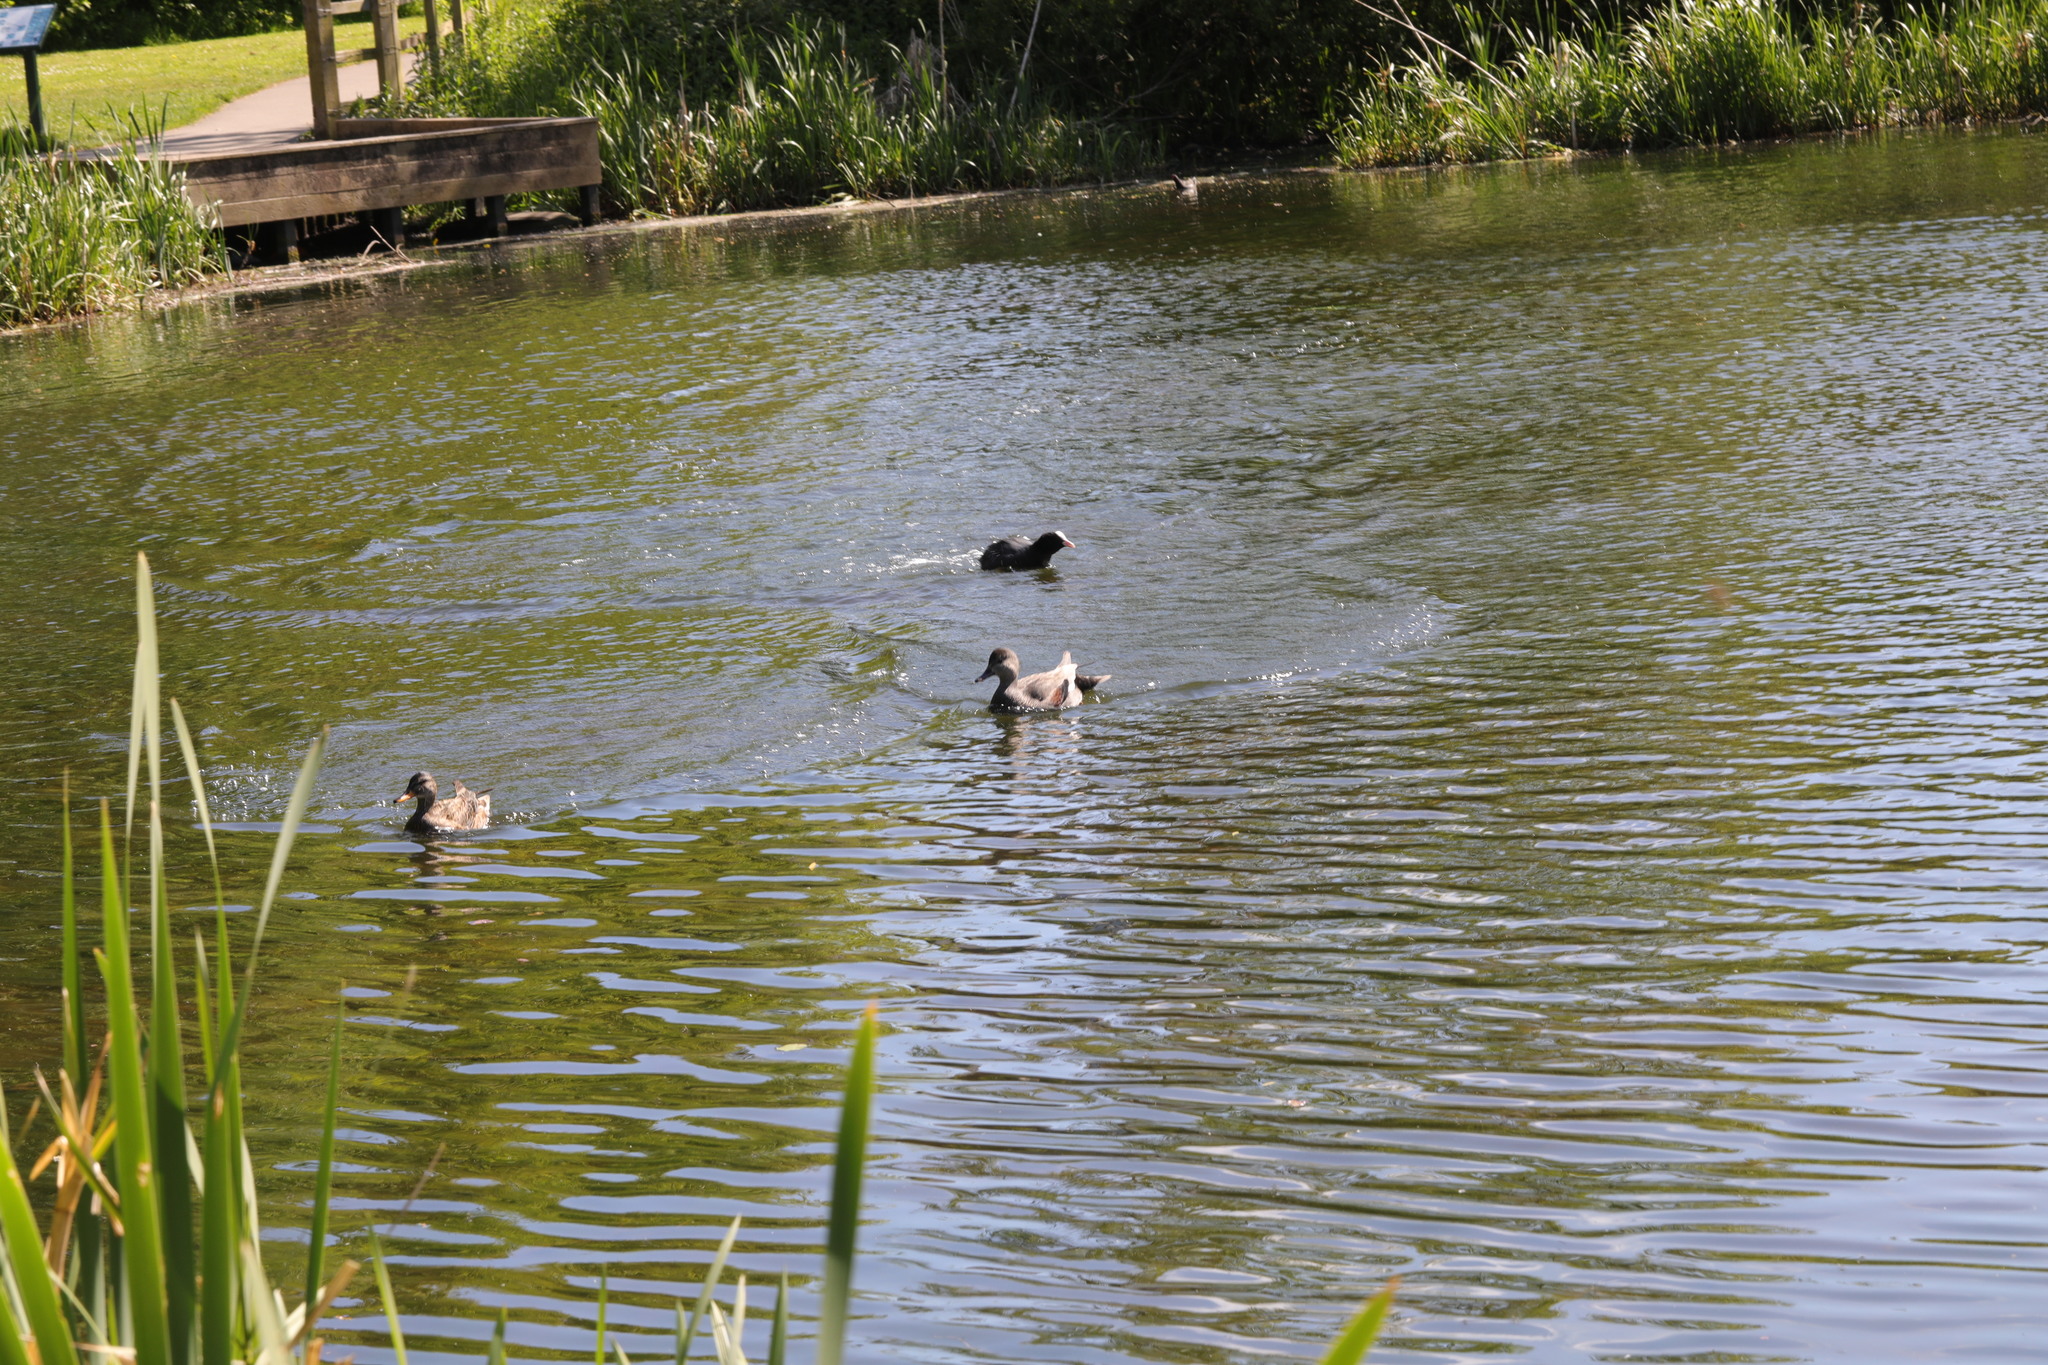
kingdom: Animalia
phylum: Chordata
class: Aves
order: Anseriformes
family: Anatidae
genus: Mareca
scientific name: Mareca strepera
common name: Gadwall
